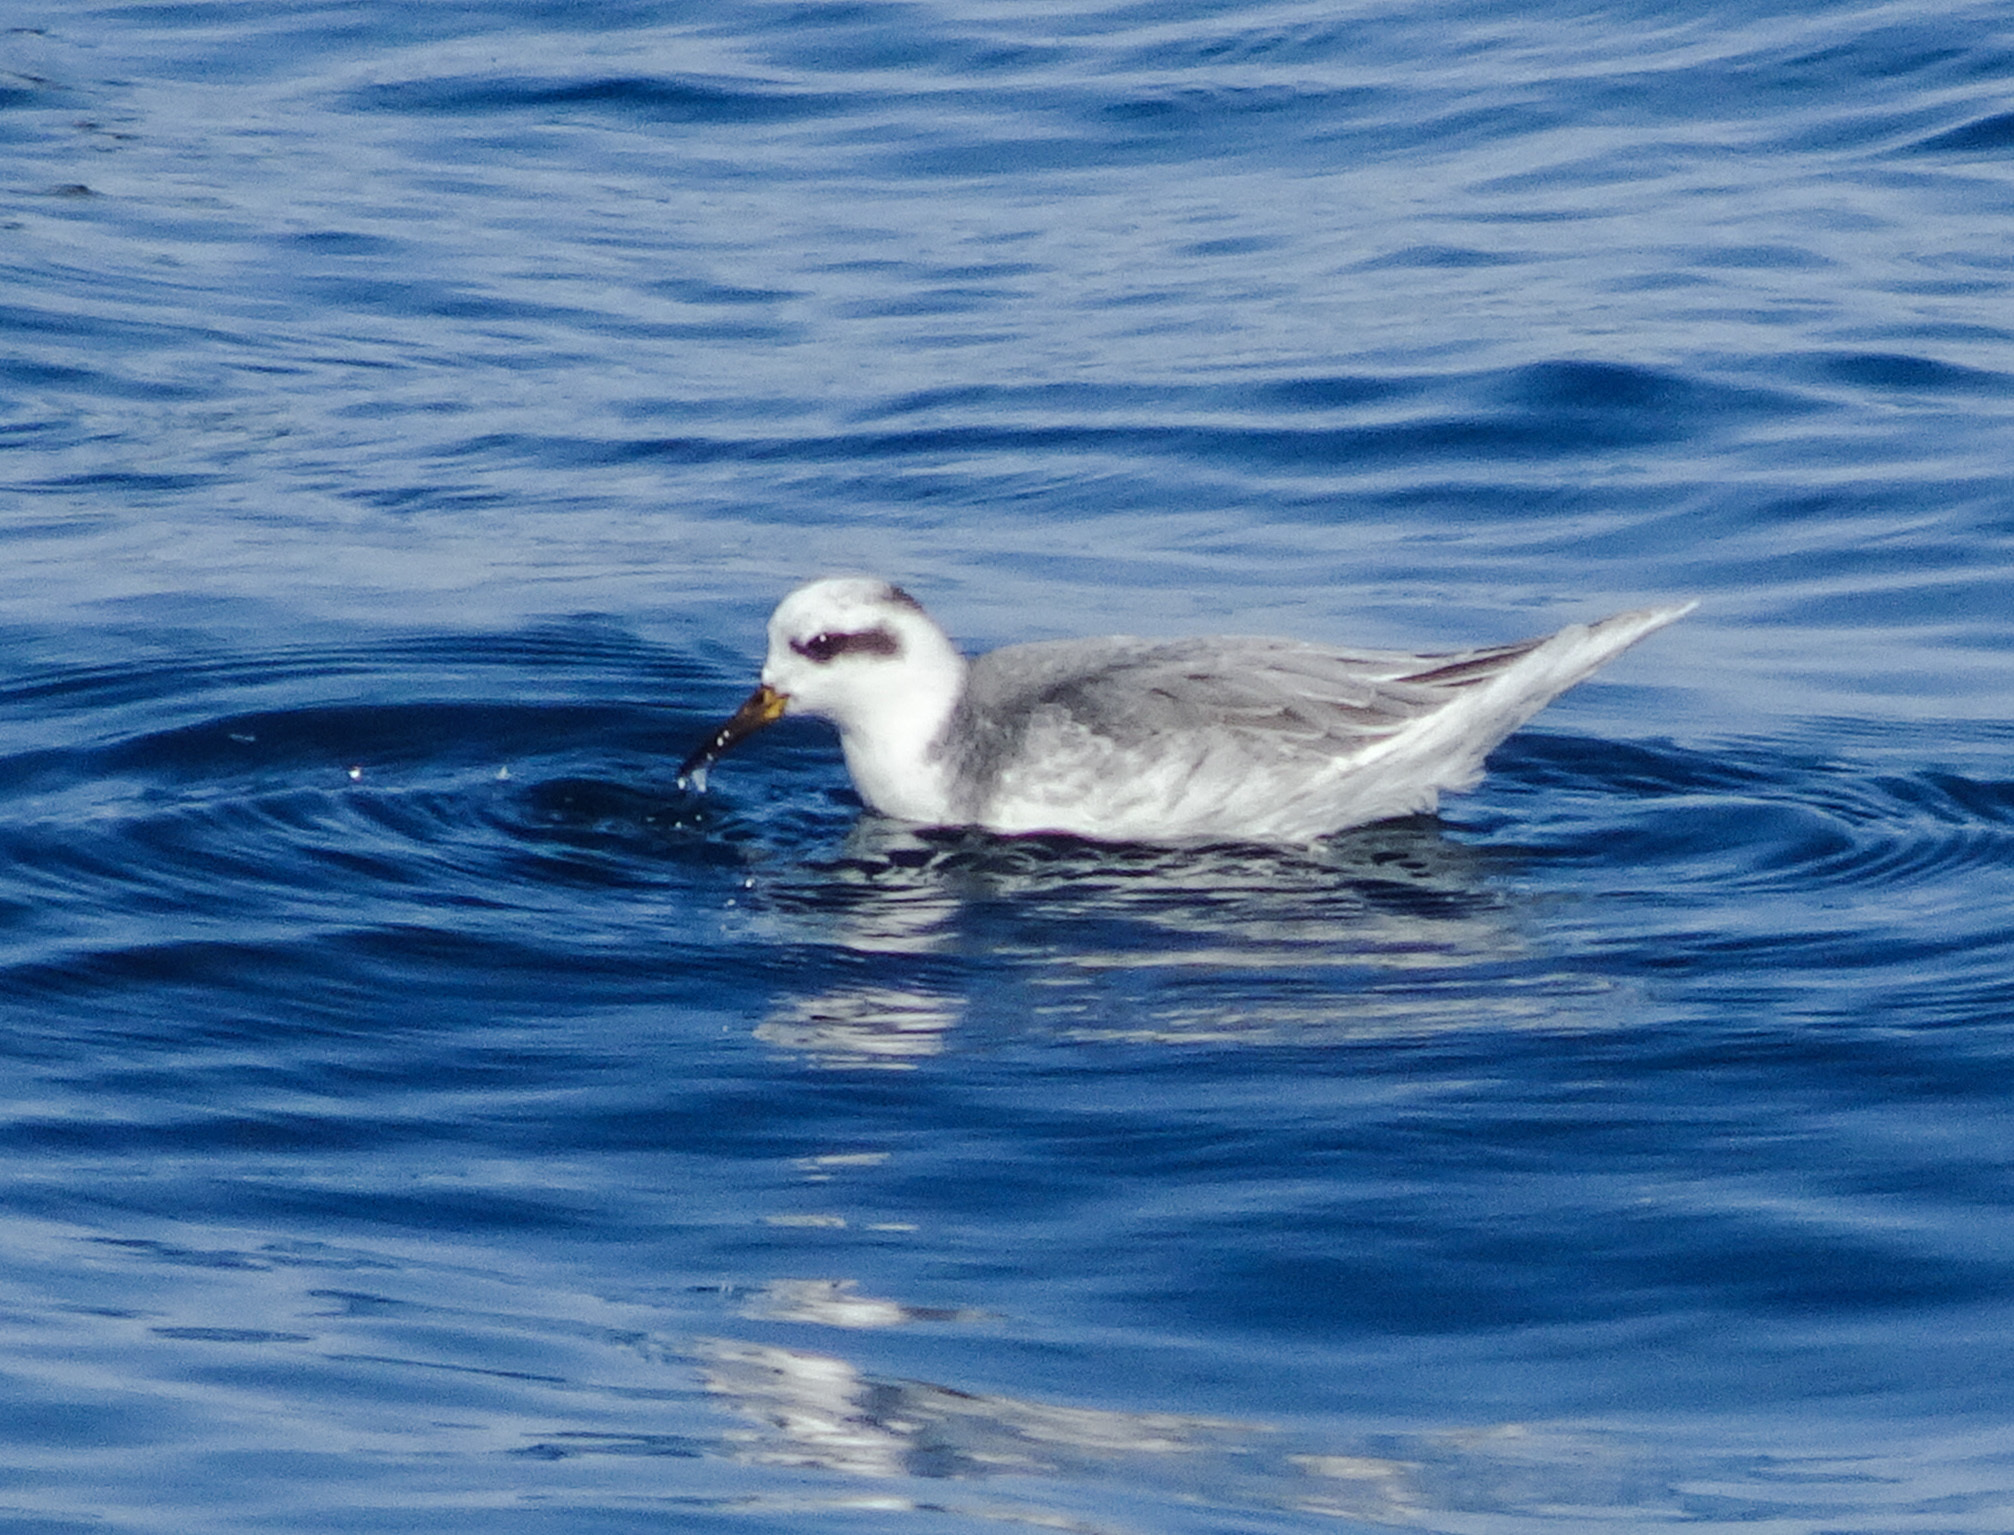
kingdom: Animalia
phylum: Chordata
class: Aves
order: Charadriiformes
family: Scolopacidae
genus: Phalaropus
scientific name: Phalaropus fulicarius
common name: Red phalarope
